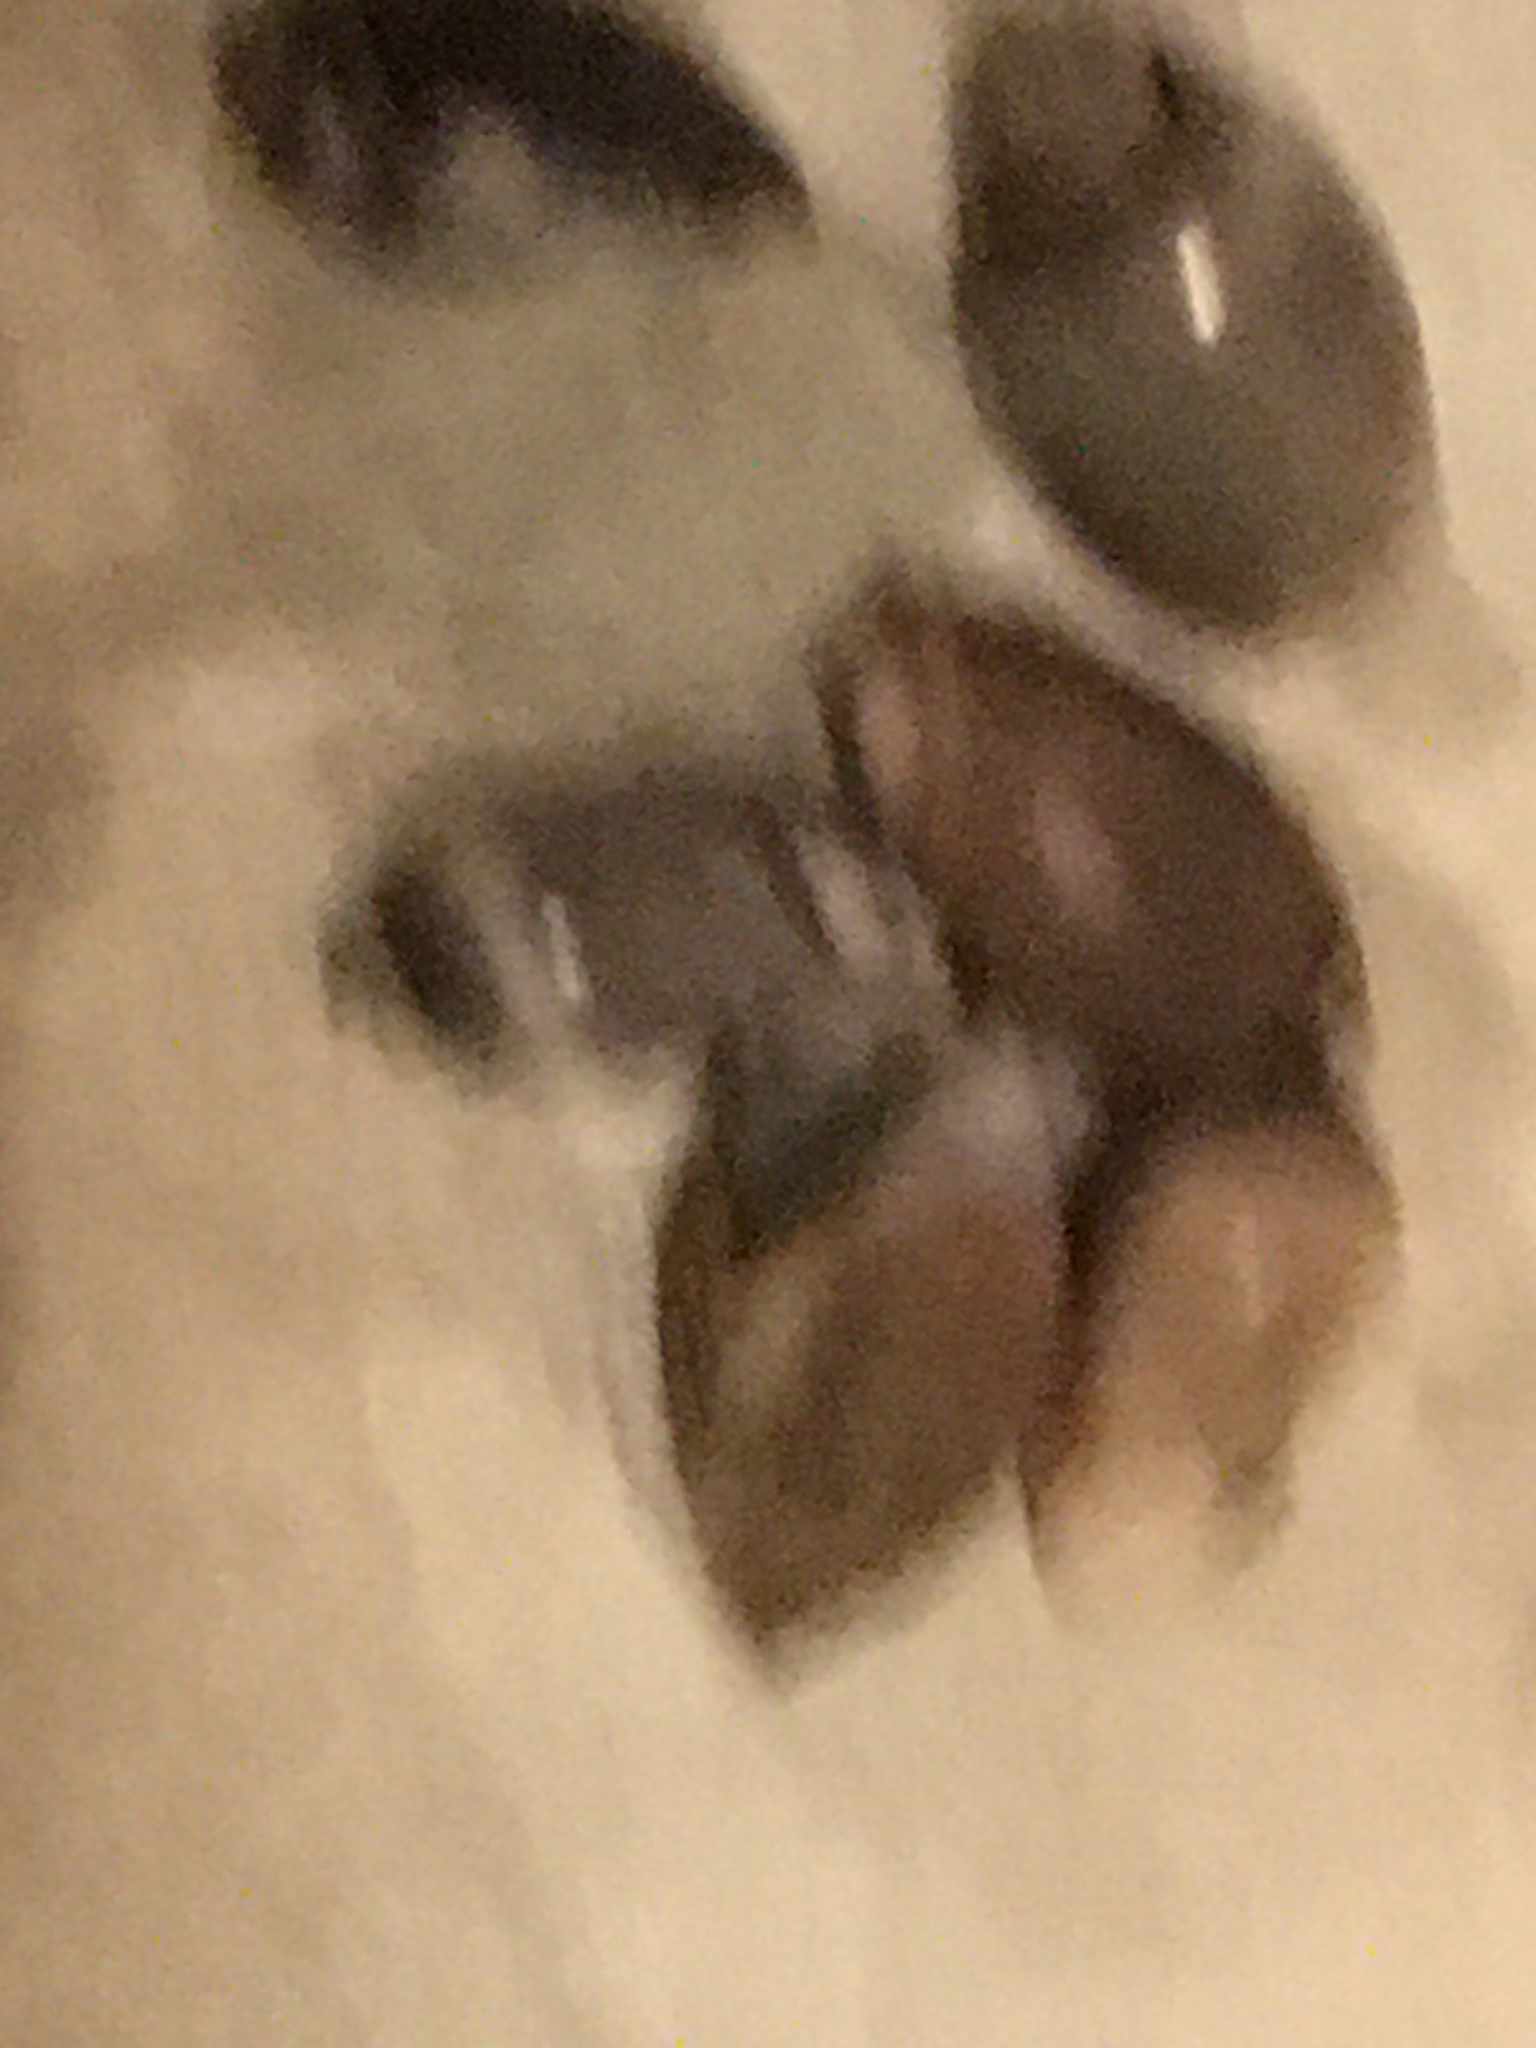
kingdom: Animalia
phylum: Mollusca
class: Gastropoda
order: Neogastropoda
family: Olividae
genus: Callianax
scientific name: Callianax biplicata
